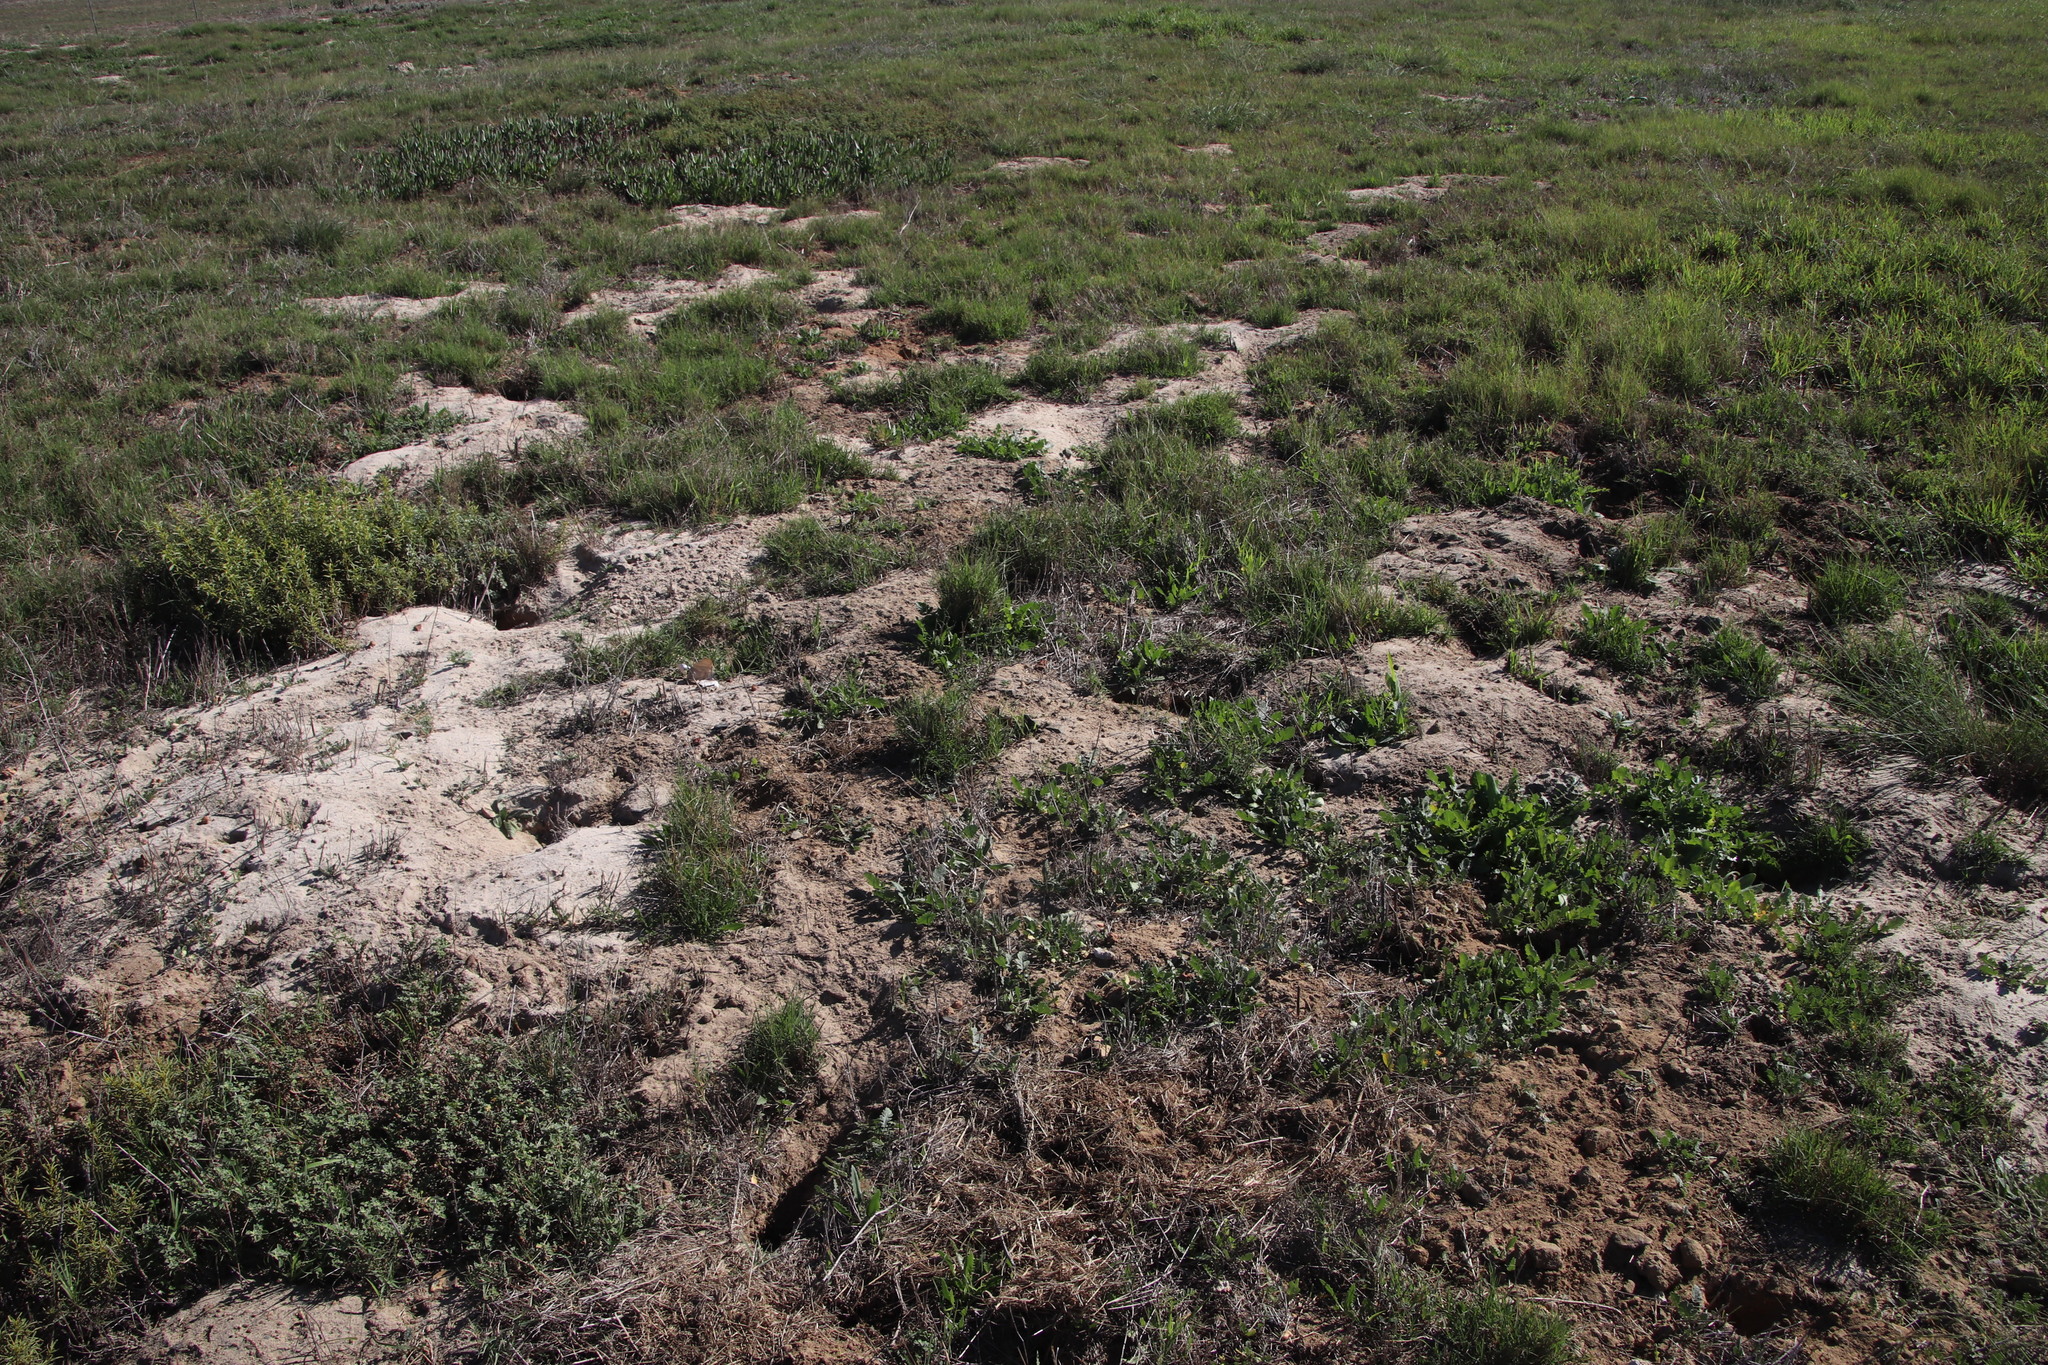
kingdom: Animalia
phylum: Chordata
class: Mammalia
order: Rodentia
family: Muridae
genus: Gerbilliscus
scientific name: Gerbilliscus afer
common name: Cape gerbil
